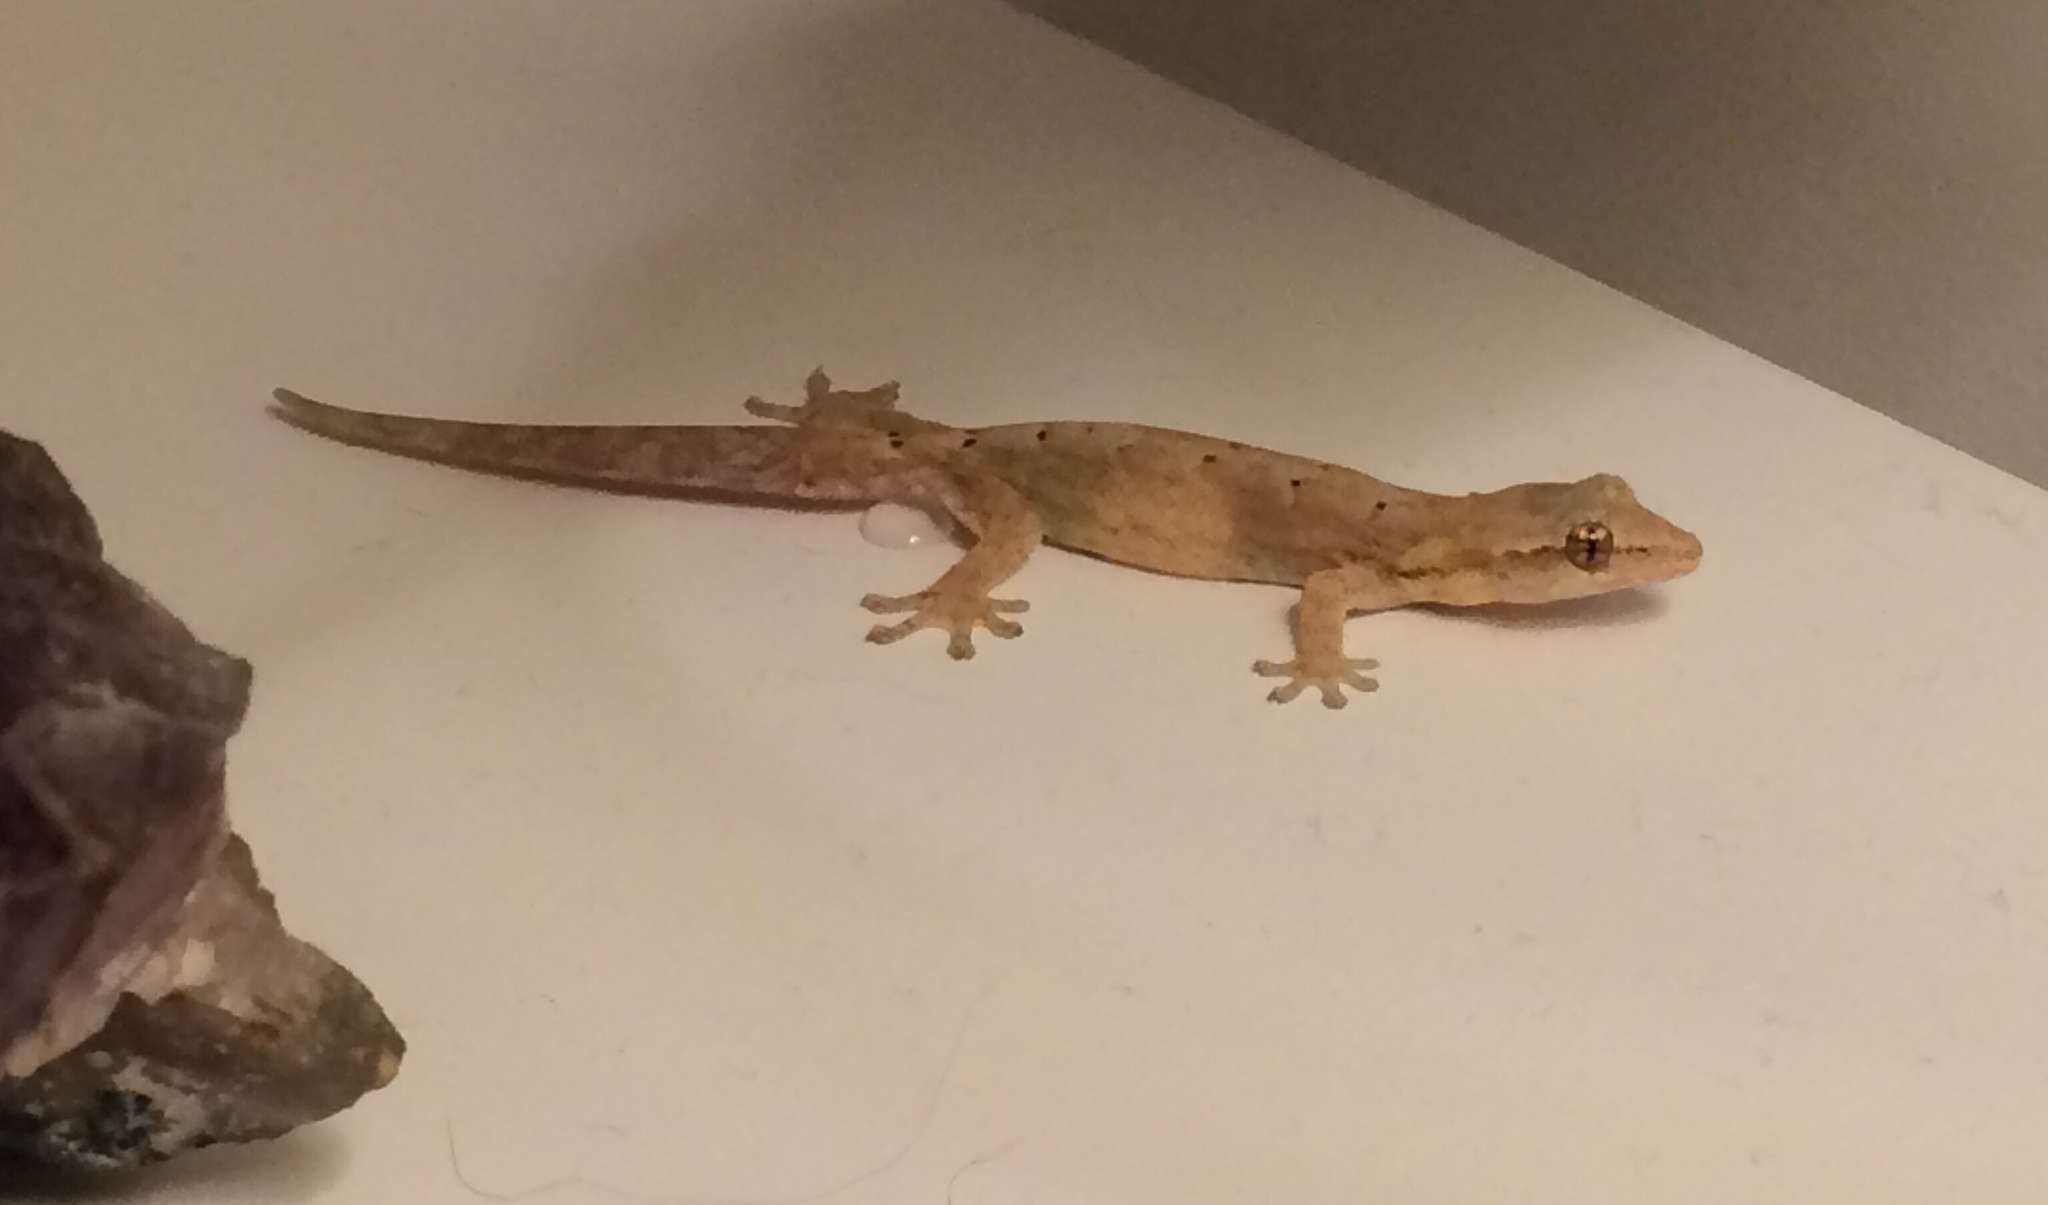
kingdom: Animalia
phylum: Chordata
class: Squamata
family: Gekkonidae
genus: Lepidodactylus
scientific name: Lepidodactylus lugubris
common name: Mourning gecko
